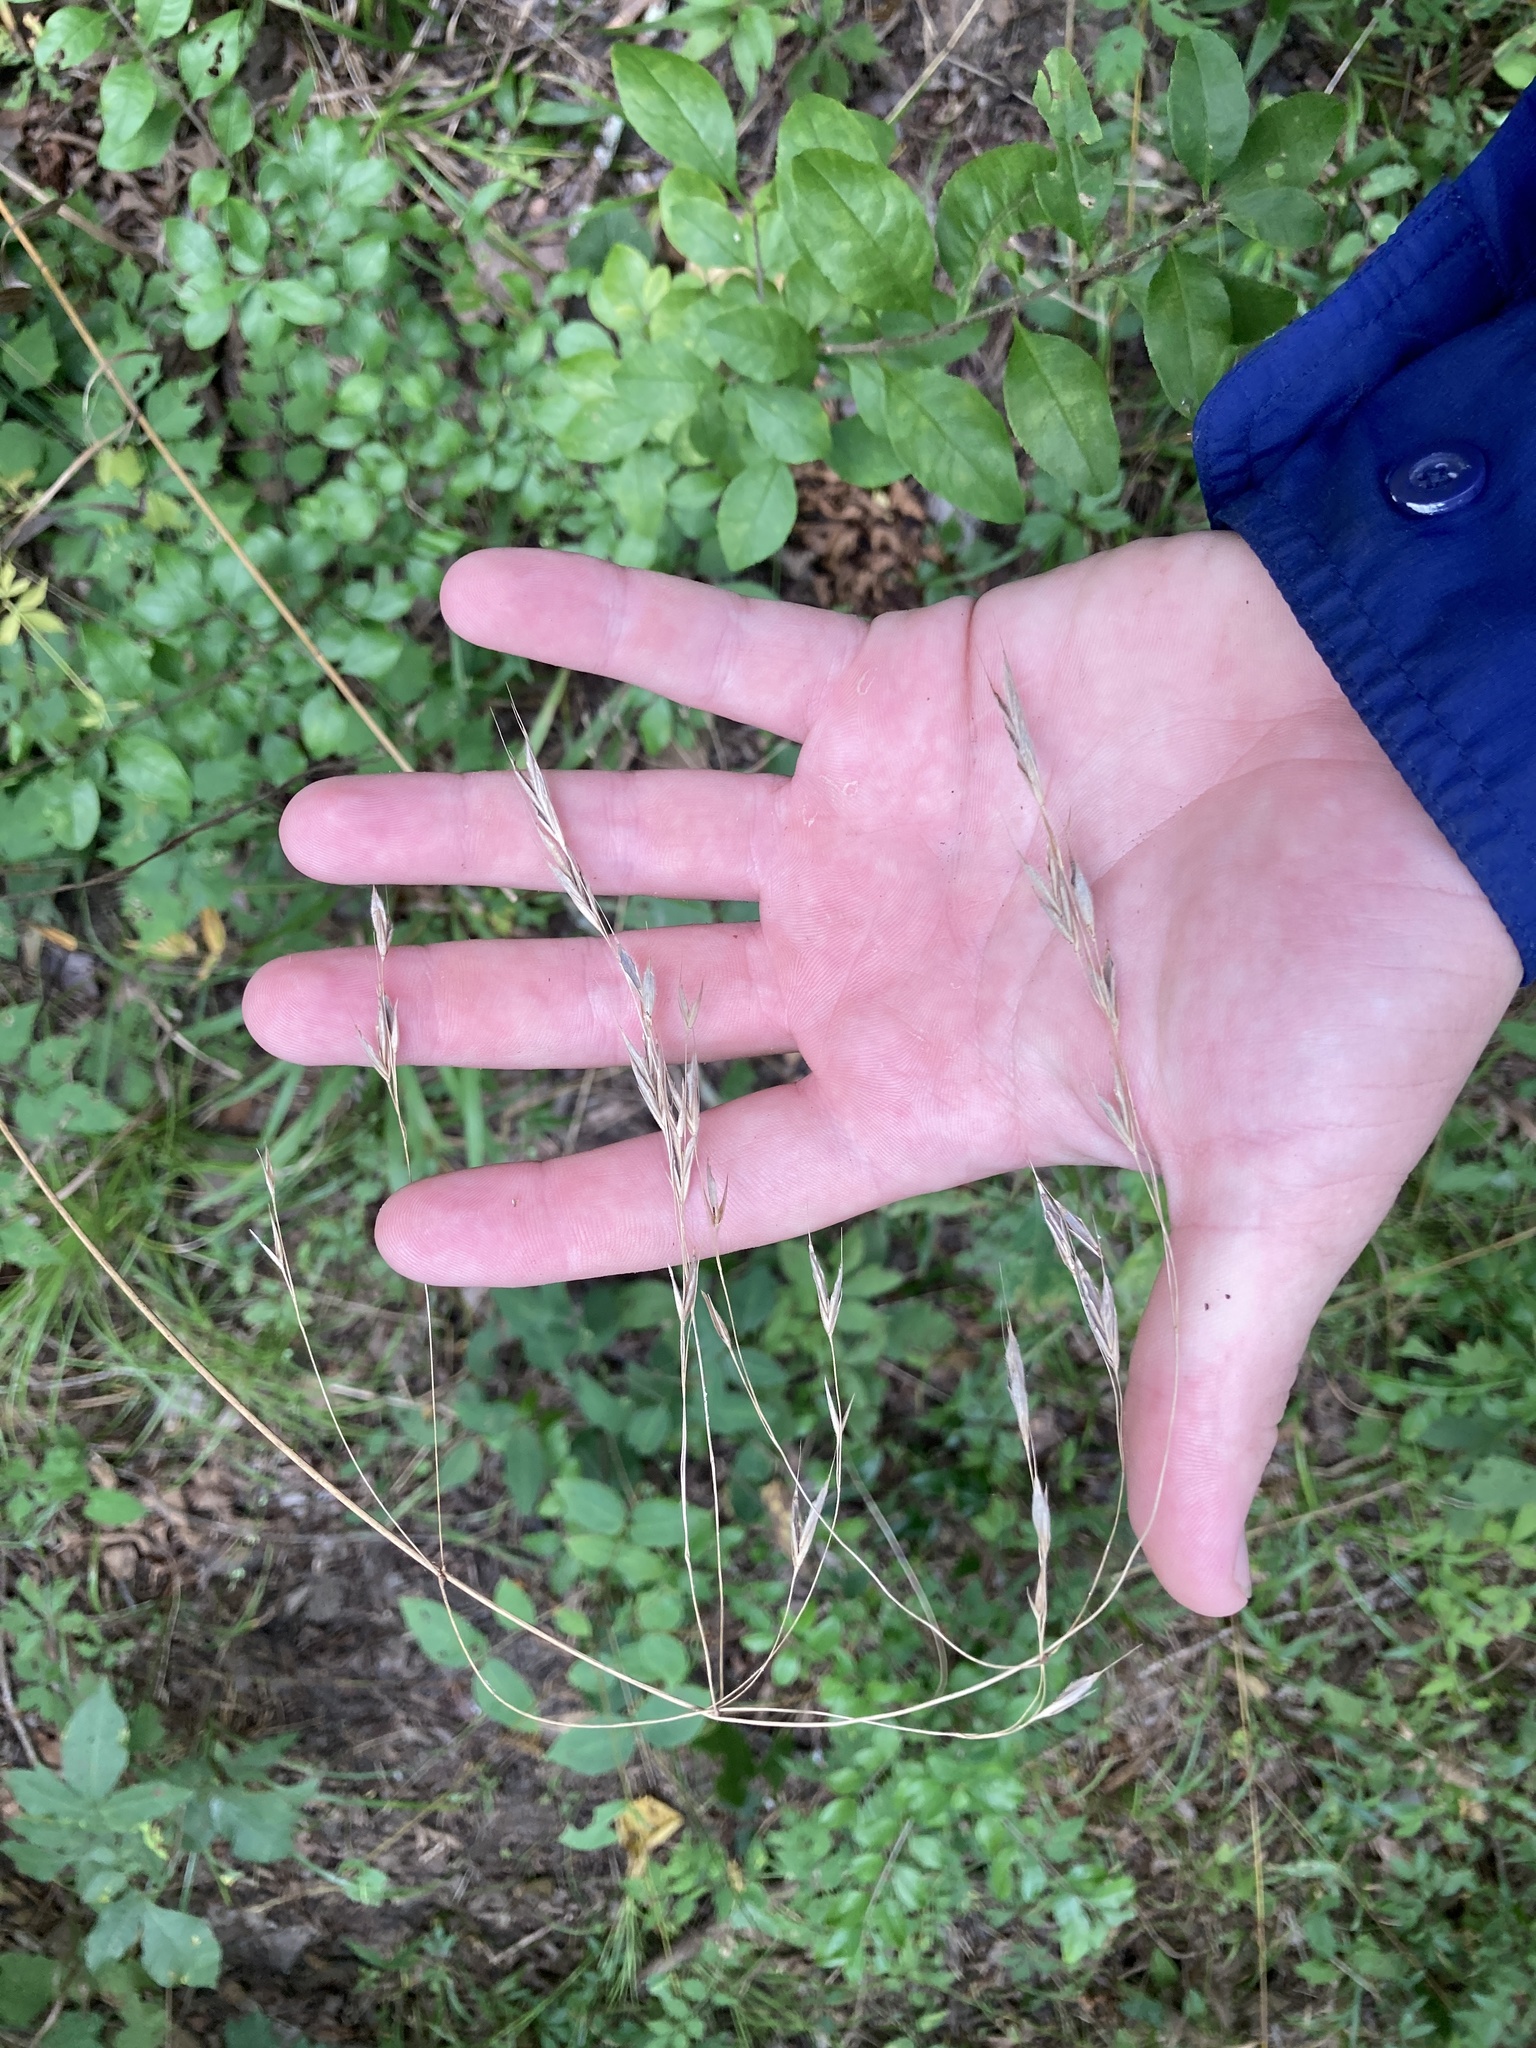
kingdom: Plantae
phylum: Tracheophyta
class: Liliopsida
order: Poales
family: Poaceae
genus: Bromus
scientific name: Bromus pubescens
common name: Hairy wood brome grass
